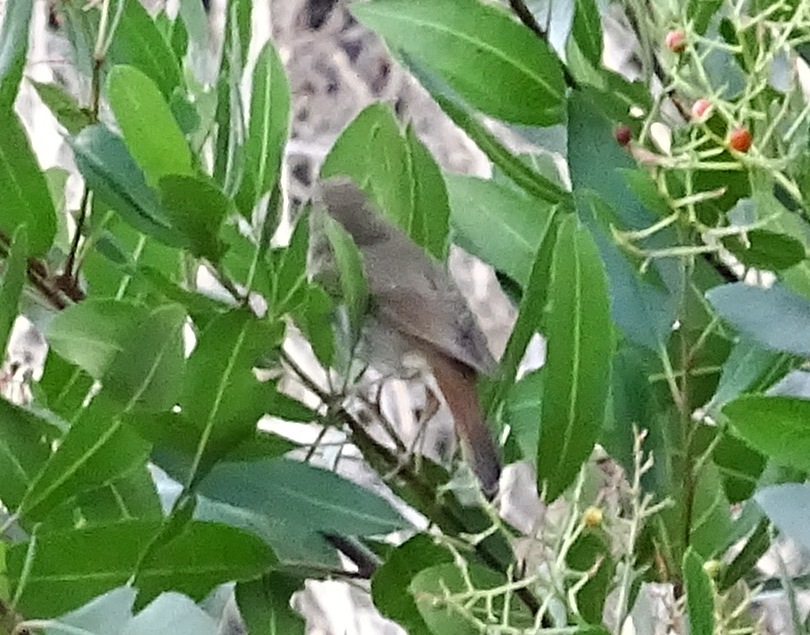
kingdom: Animalia
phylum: Chordata
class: Aves
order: Passeriformes
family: Turdidae
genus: Catharus
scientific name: Catharus guttatus
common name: Hermit thrush
